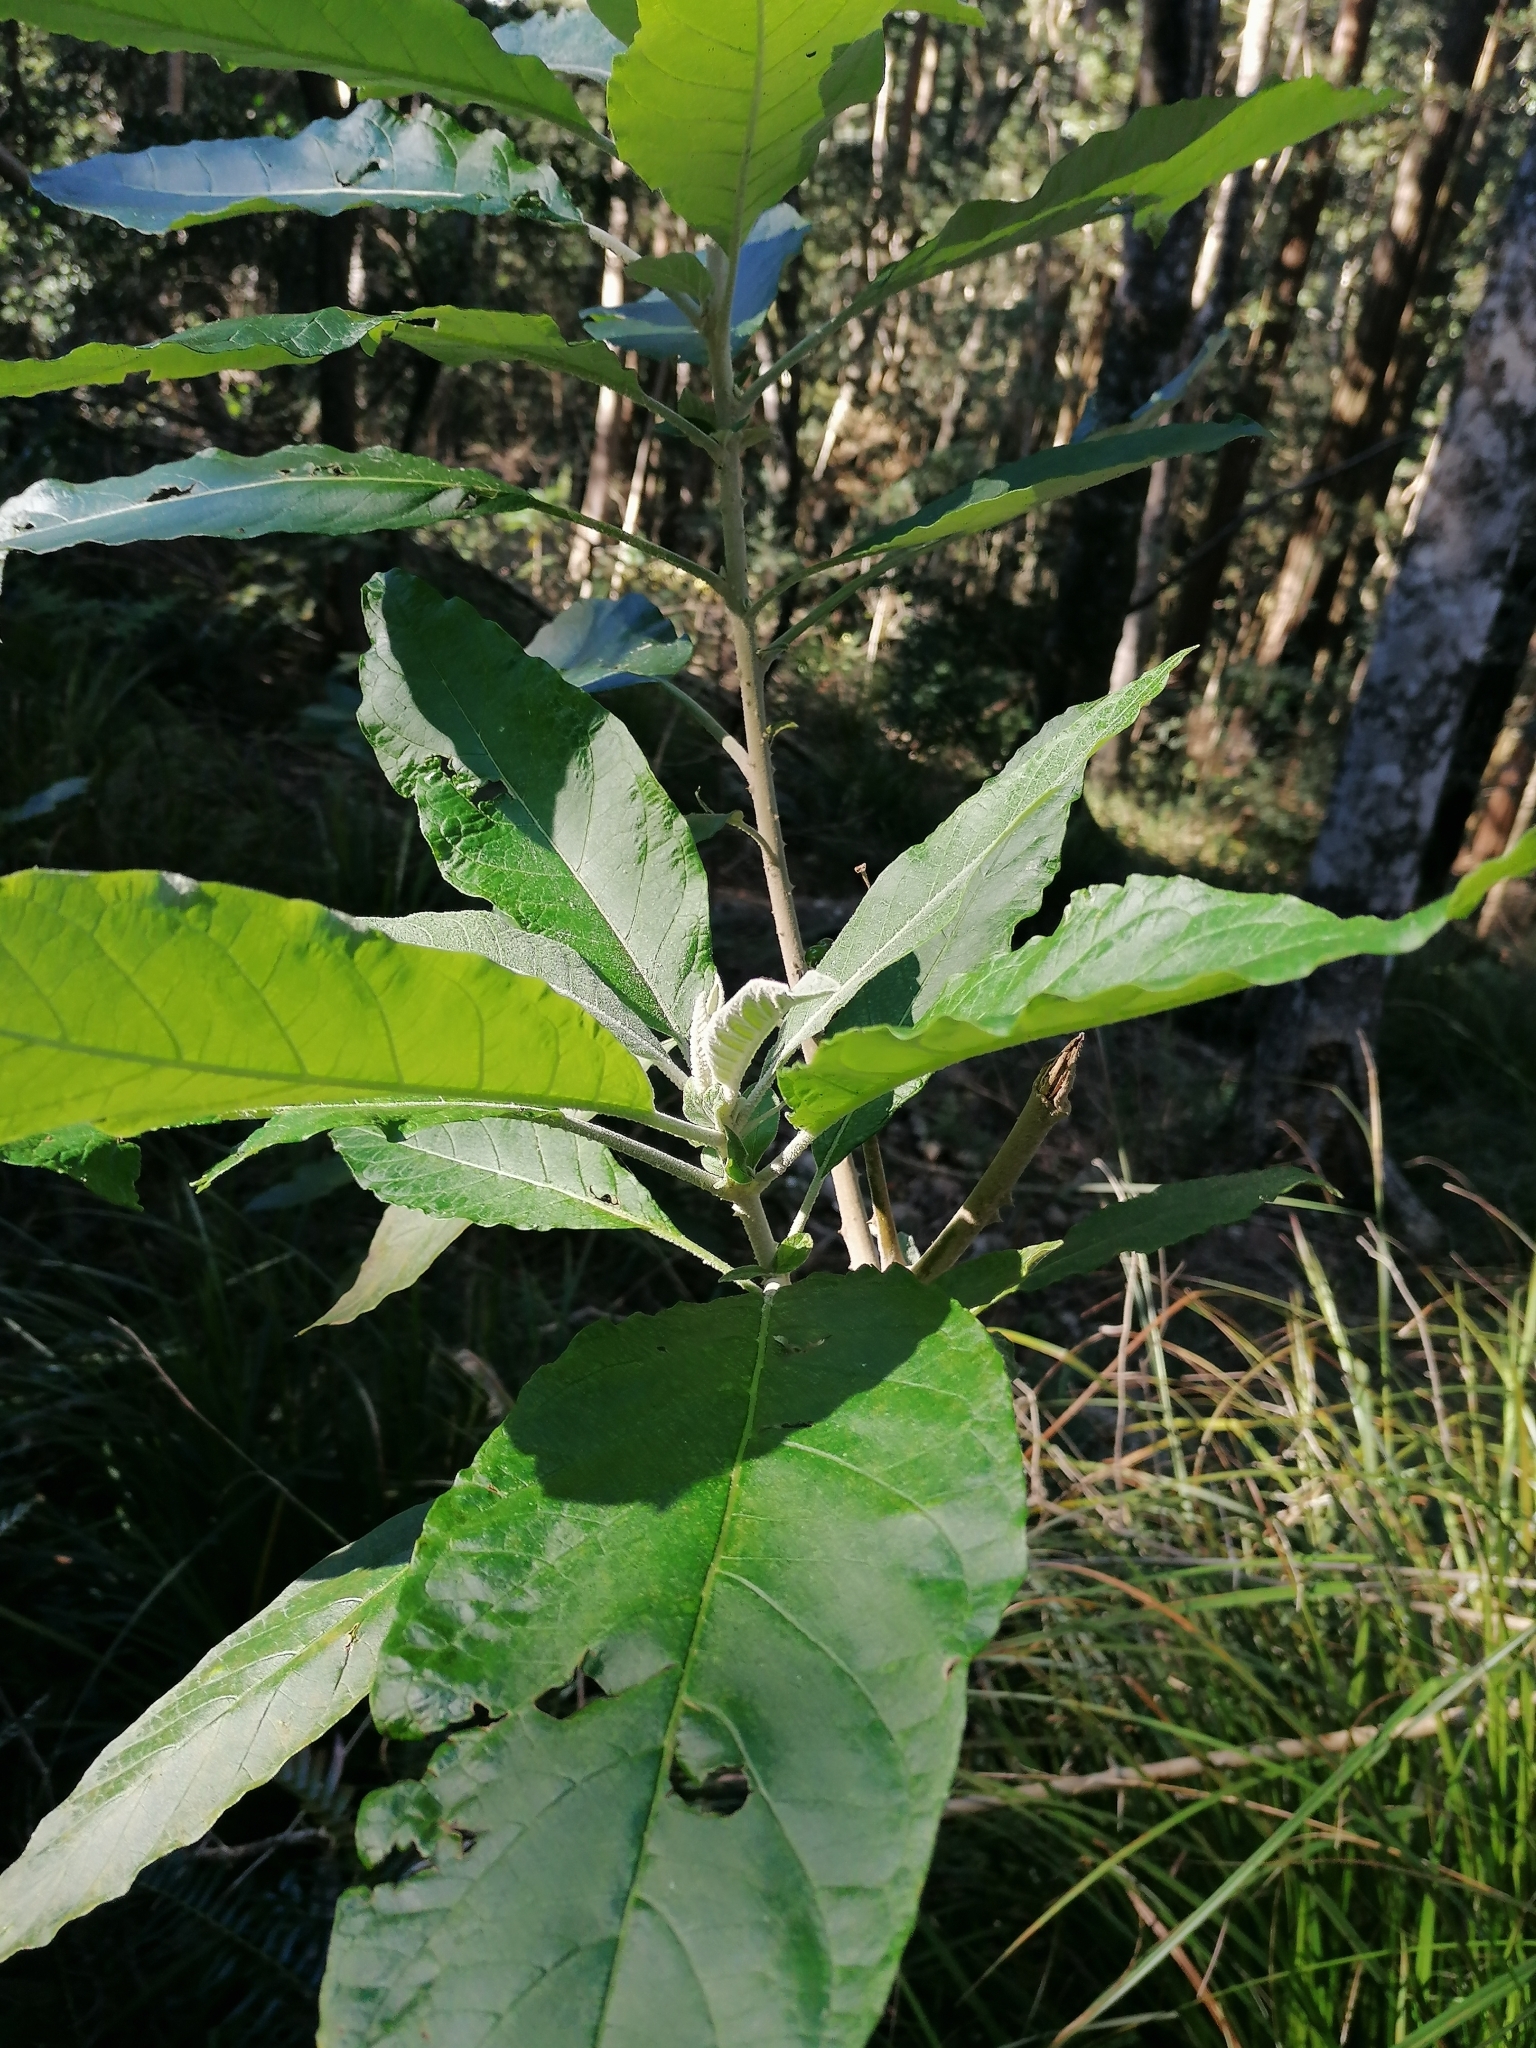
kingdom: Plantae
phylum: Tracheophyta
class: Magnoliopsida
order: Solanales
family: Solanaceae
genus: Solanum
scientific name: Solanum giganteum
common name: Healing-leaf-tree
